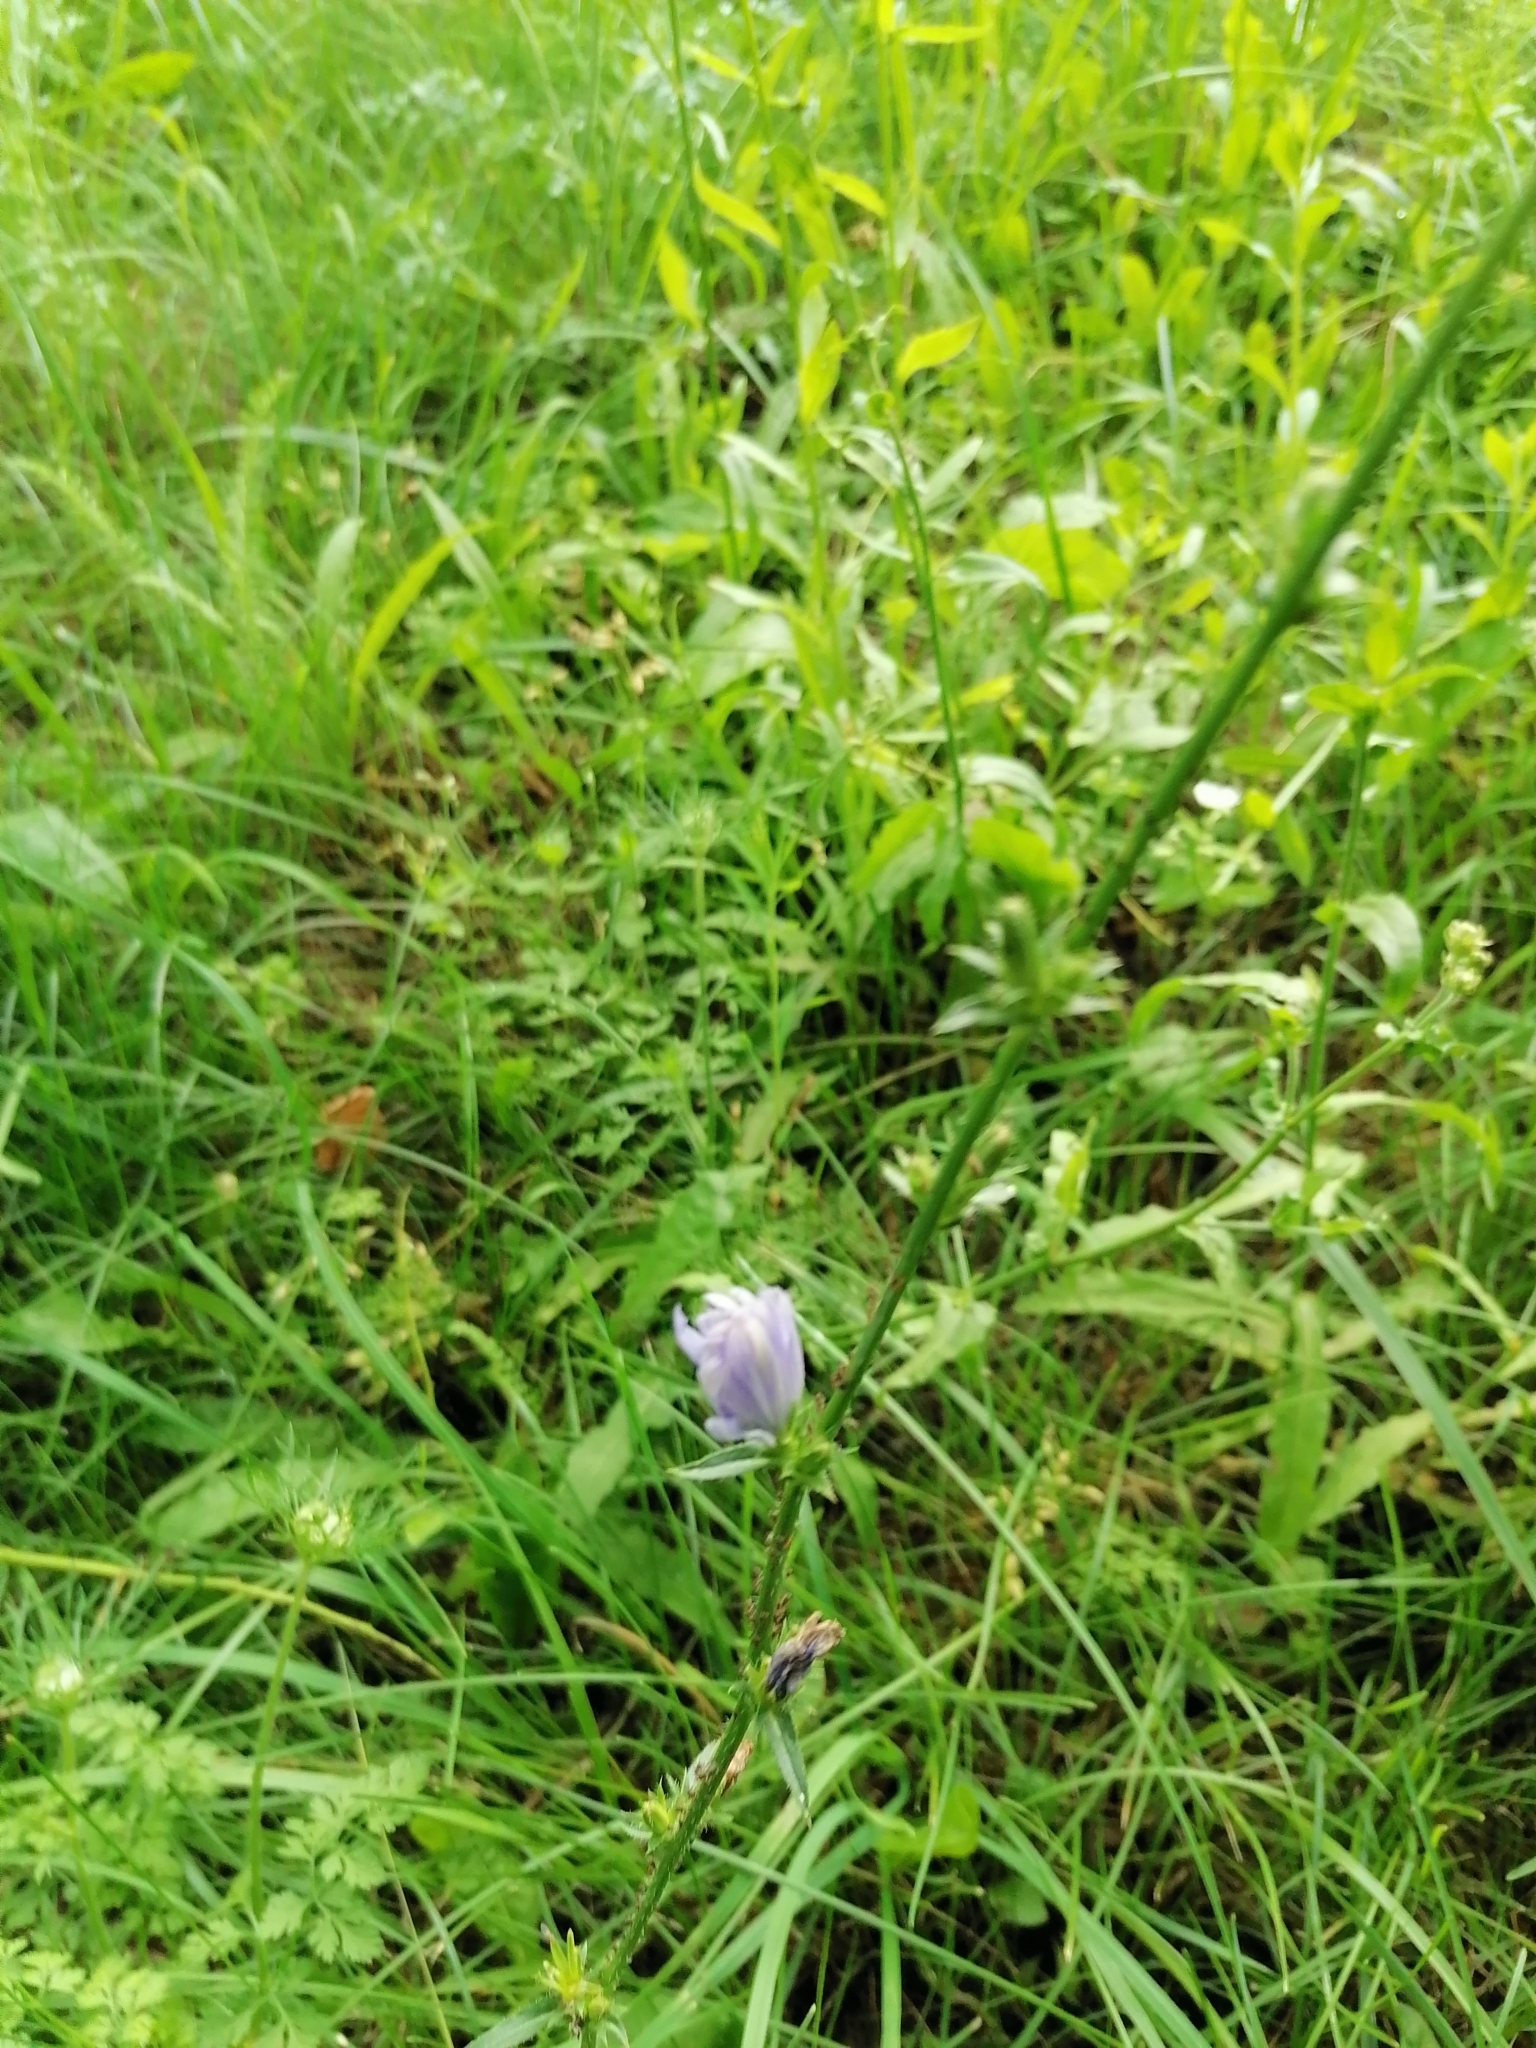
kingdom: Plantae
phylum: Tracheophyta
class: Magnoliopsida
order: Asterales
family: Asteraceae
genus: Cichorium
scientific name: Cichorium intybus
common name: Chicory
